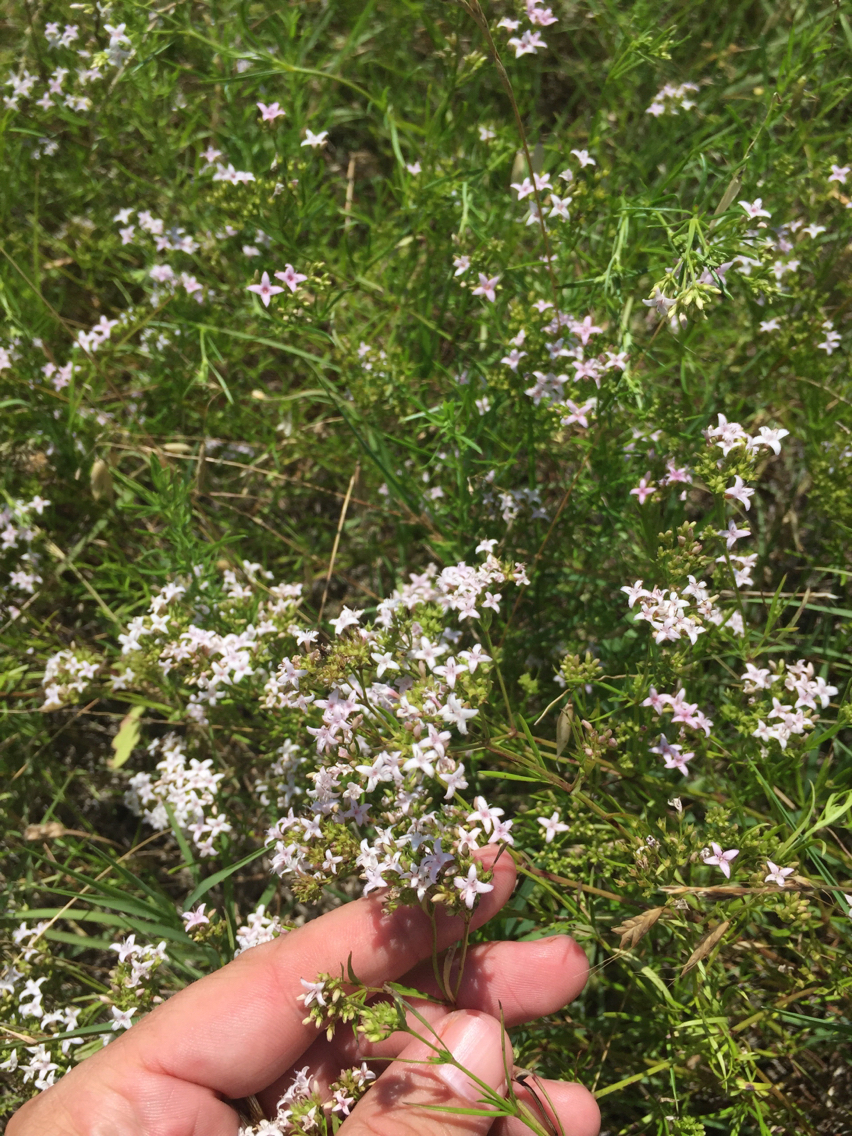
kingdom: Plantae
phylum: Tracheophyta
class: Magnoliopsida
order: Gentianales
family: Rubiaceae
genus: Stenaria
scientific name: Stenaria nigricans
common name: Diamondflowers
